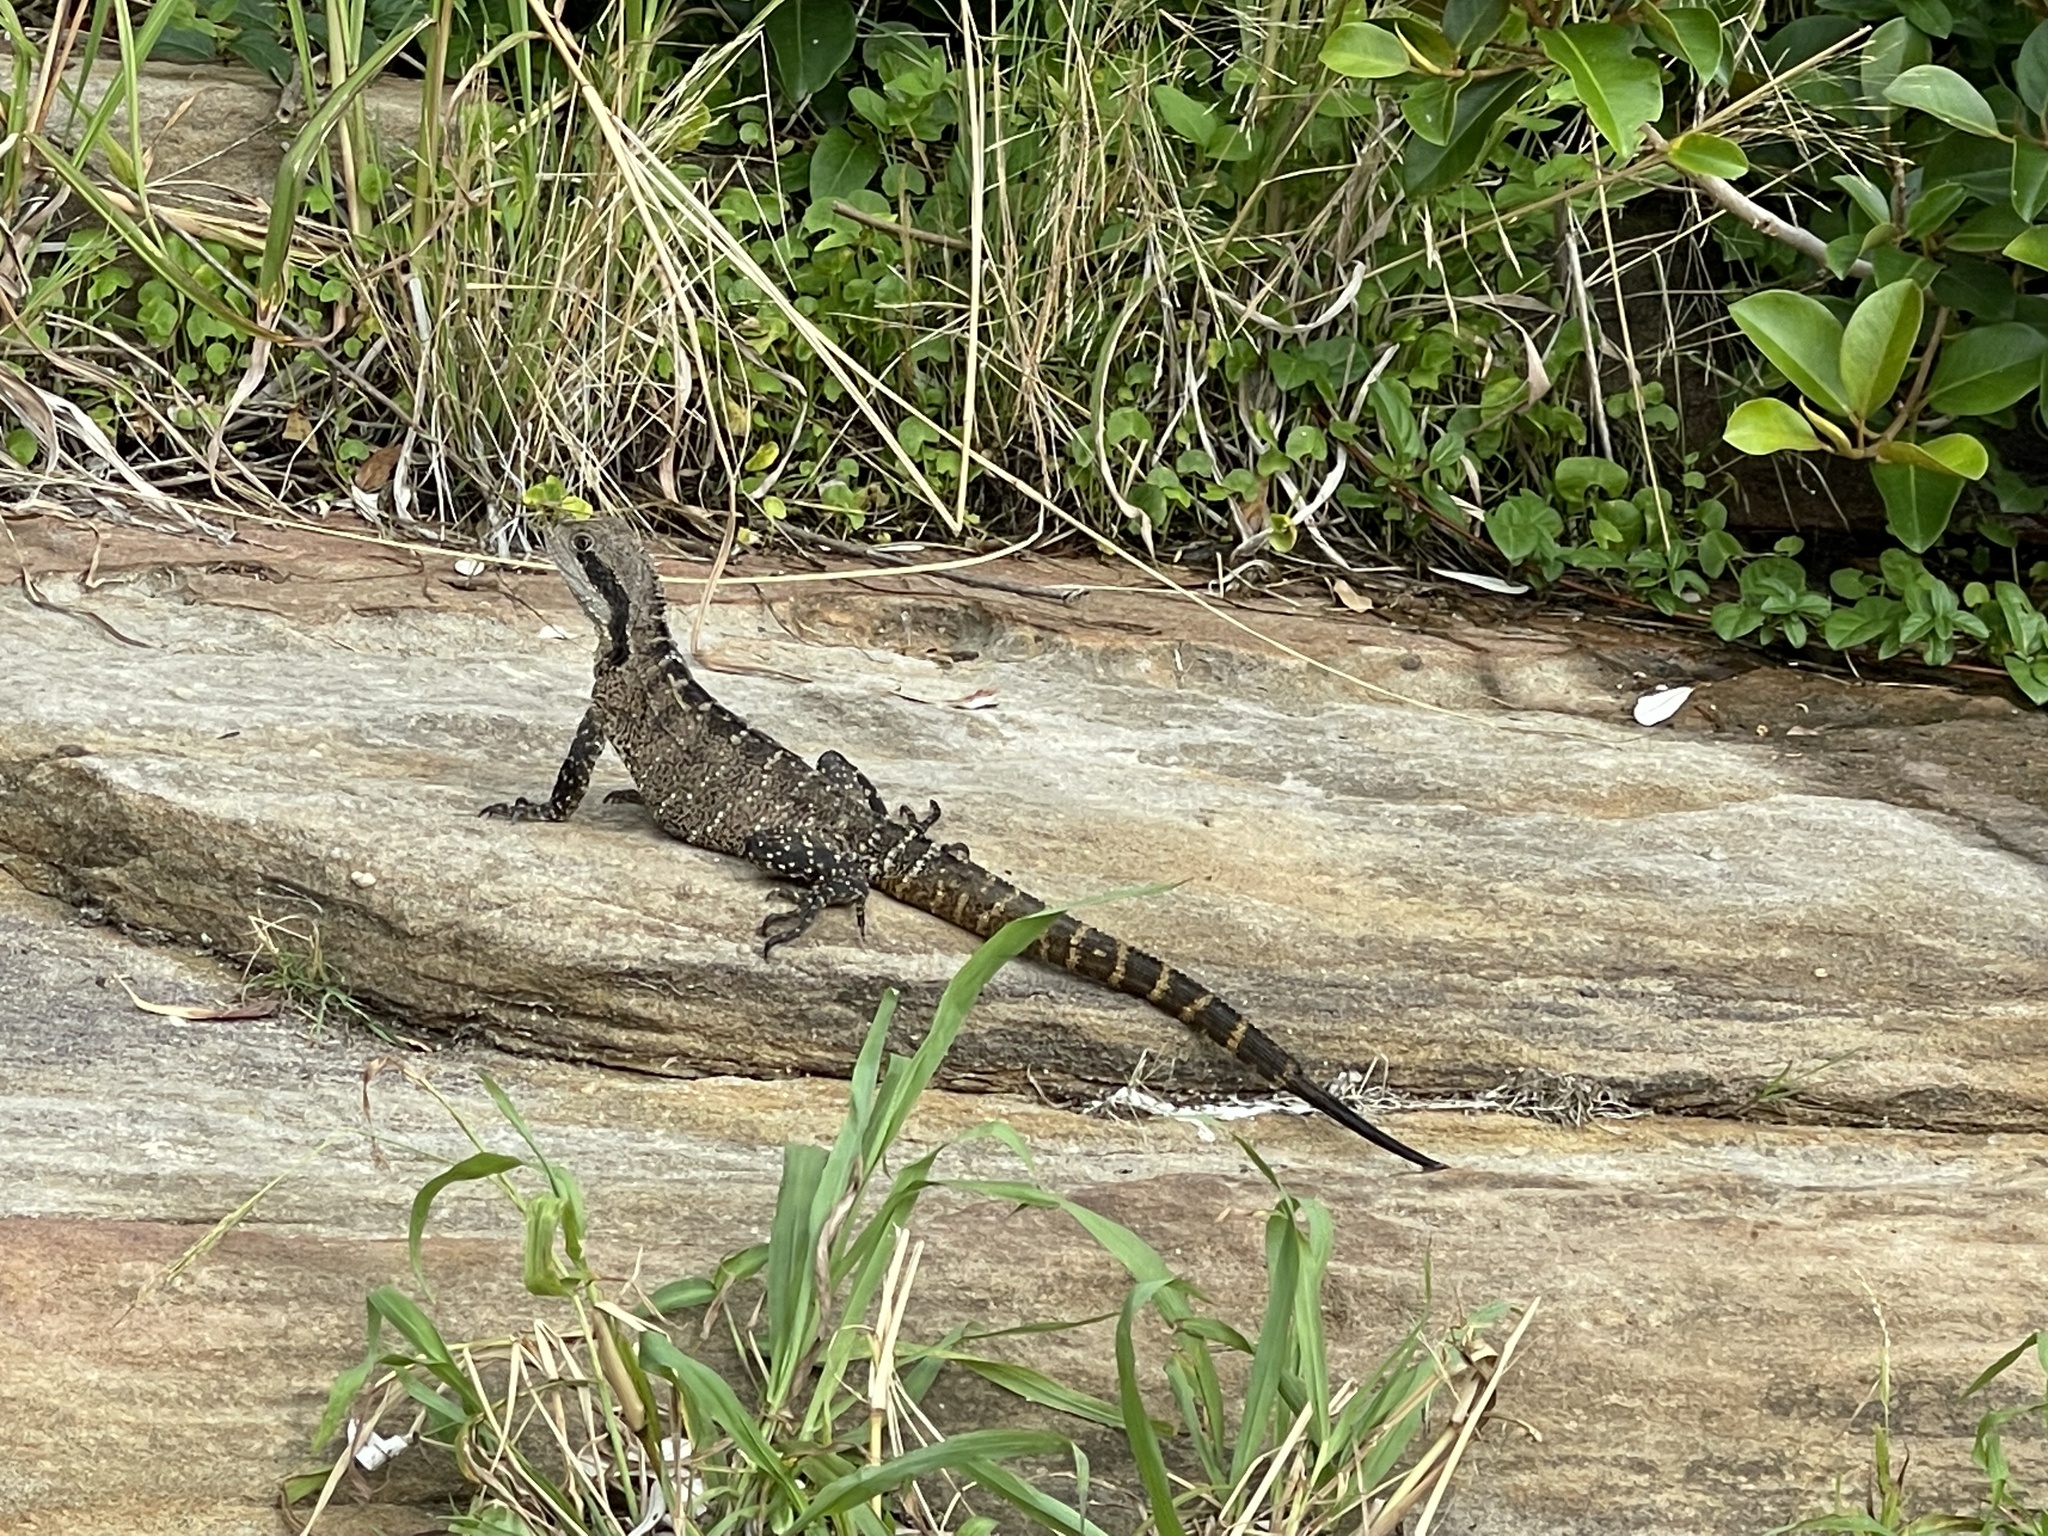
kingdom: Animalia
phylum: Chordata
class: Squamata
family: Agamidae
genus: Intellagama
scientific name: Intellagama lesueurii
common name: Eastern water dragon
